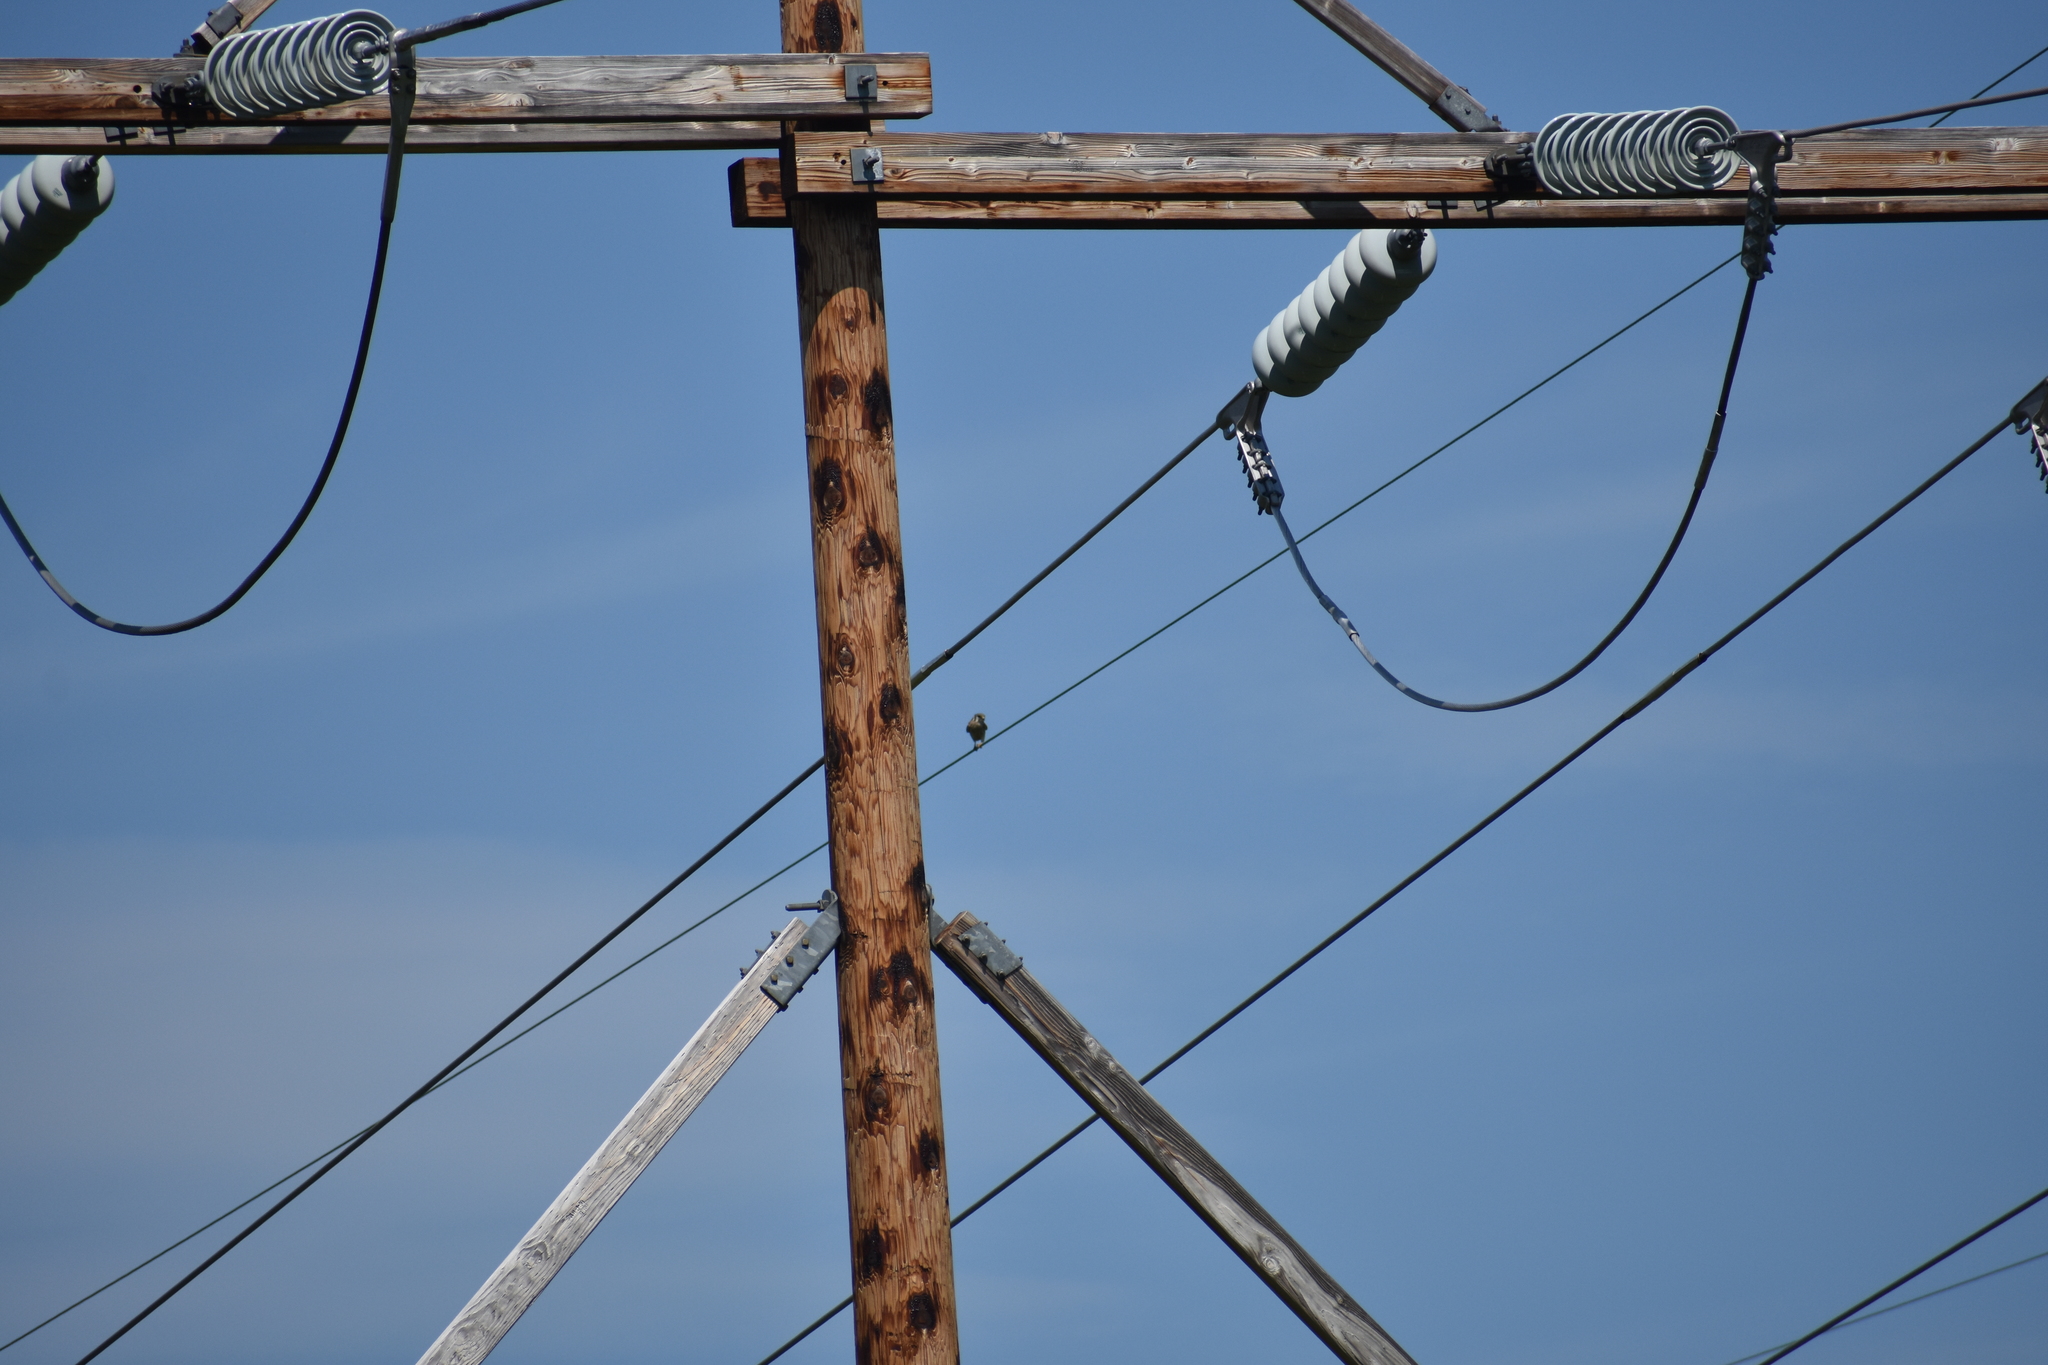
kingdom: Animalia
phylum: Chordata
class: Aves
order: Falconiformes
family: Falconidae
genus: Falco
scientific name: Falco sparverius
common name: American kestrel
